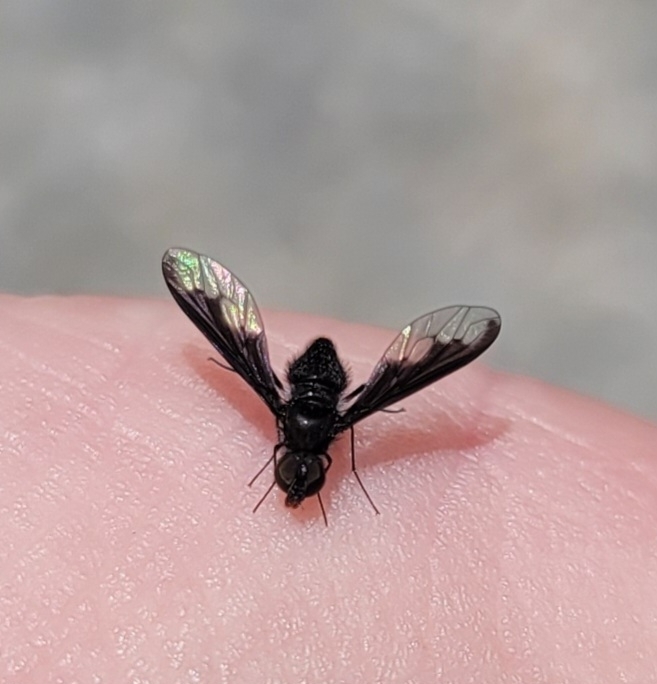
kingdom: Animalia
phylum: Arthropoda
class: Insecta
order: Diptera
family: Bombyliidae
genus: Anthrax
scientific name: Anthrax argyropygus
